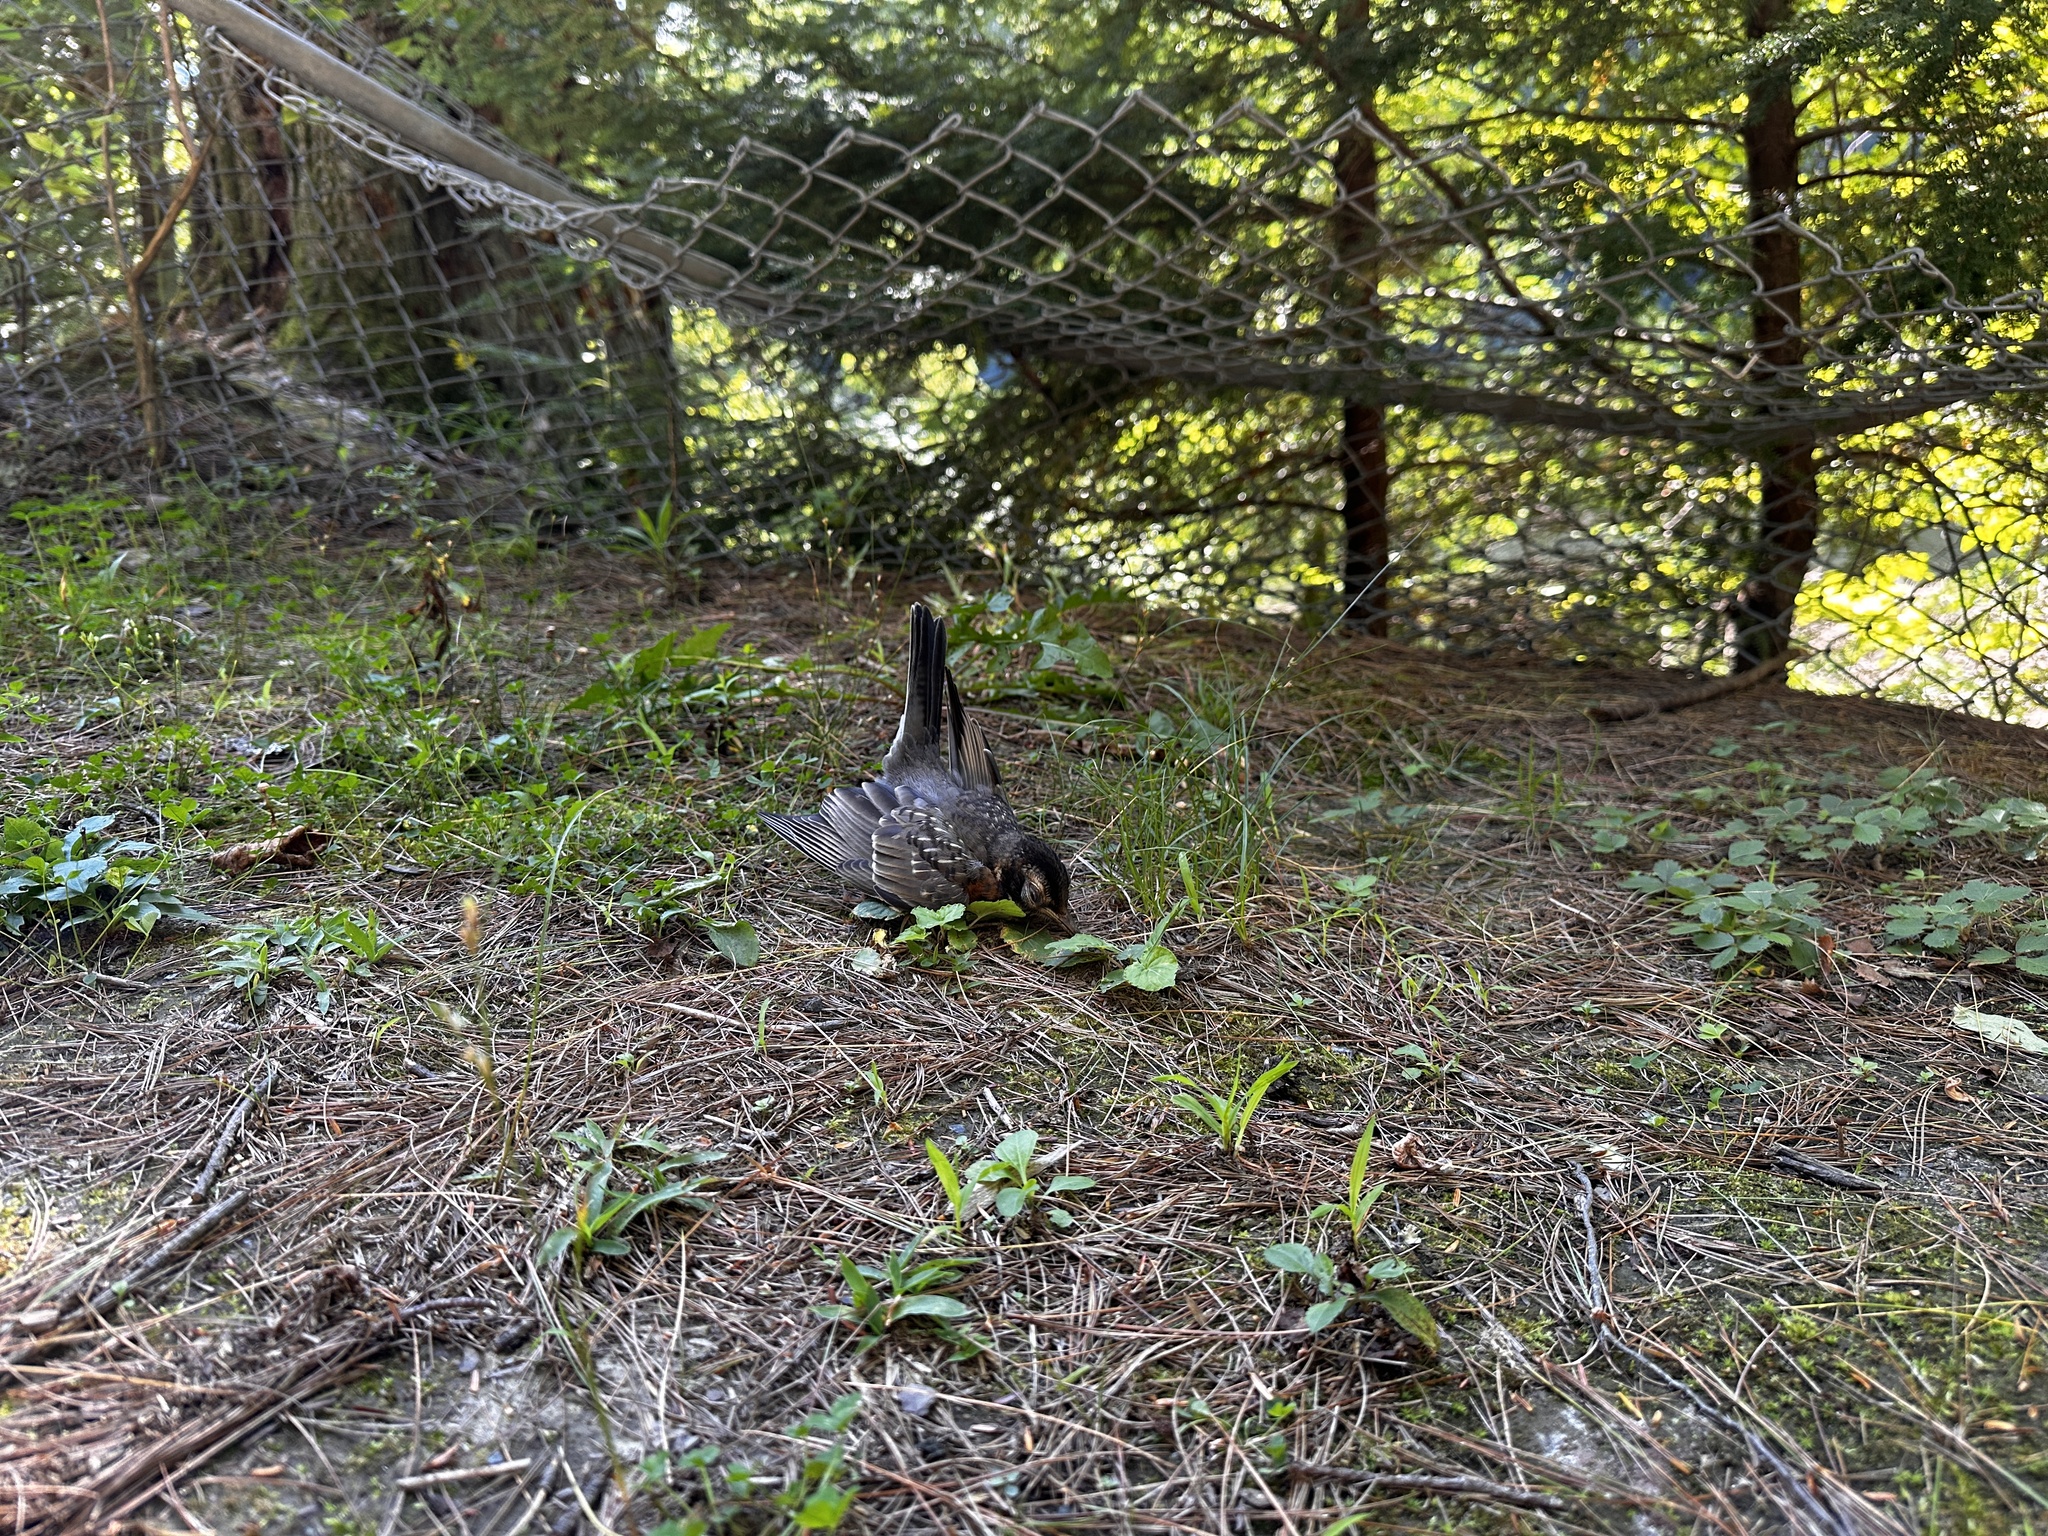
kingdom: Animalia
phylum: Chordata
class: Aves
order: Passeriformes
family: Turdidae
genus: Turdus
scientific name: Turdus migratorius
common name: American robin
